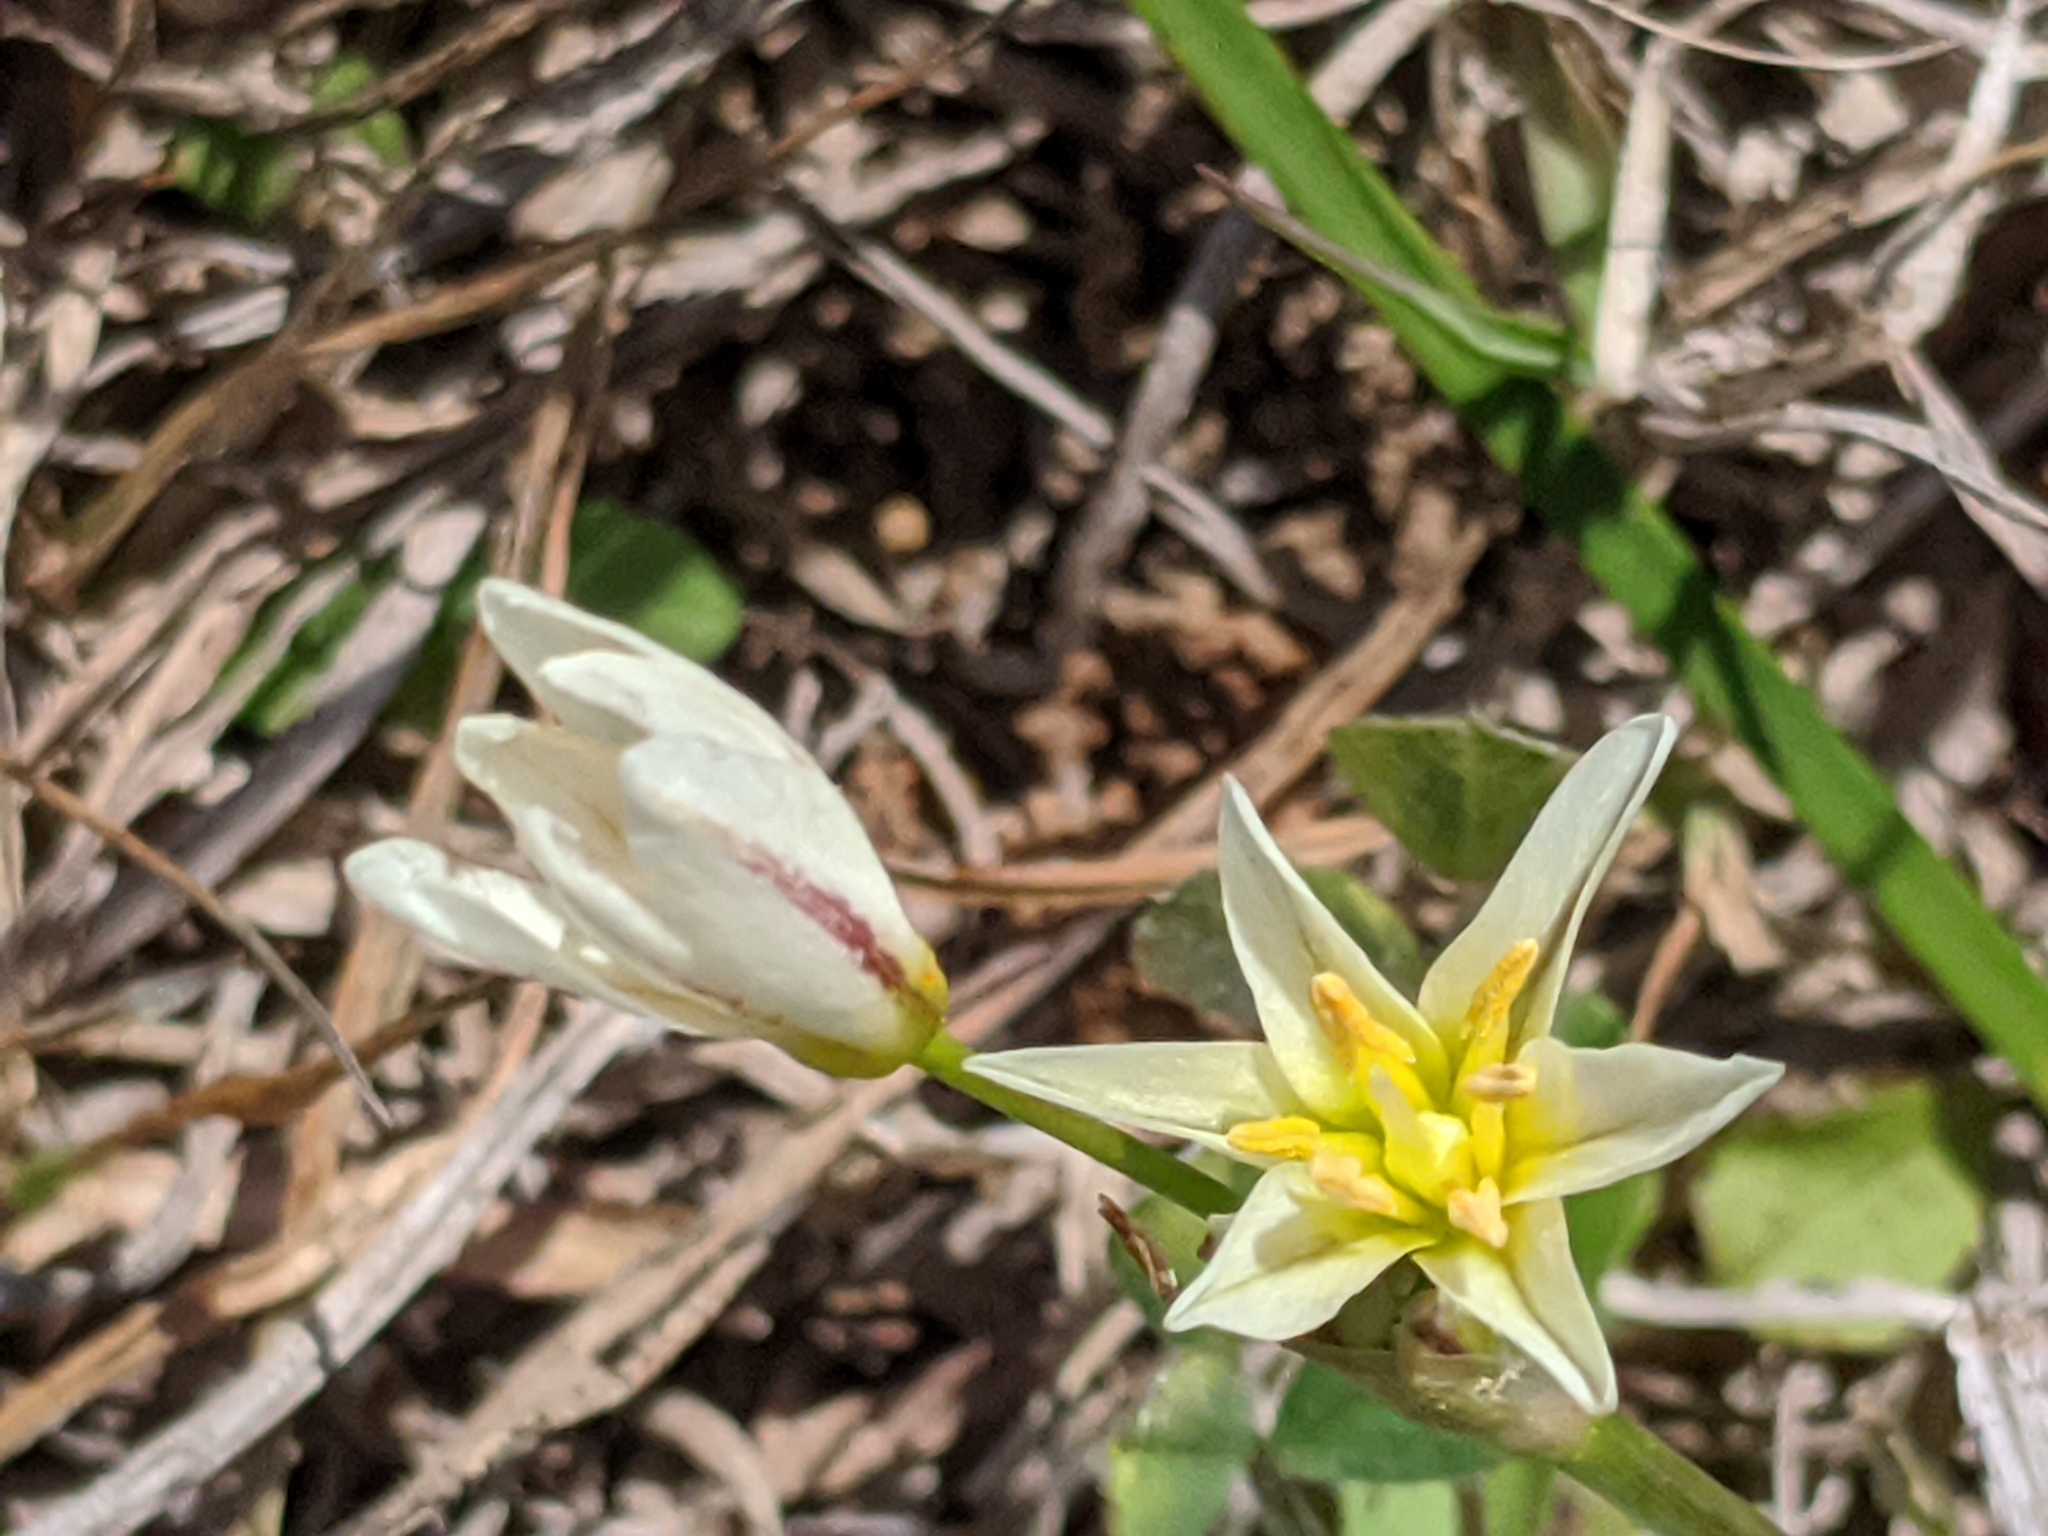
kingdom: Plantae
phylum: Tracheophyta
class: Liliopsida
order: Asparagales
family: Amaryllidaceae
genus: Nothoscordum
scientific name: Nothoscordum bivalve
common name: Crow-poison
